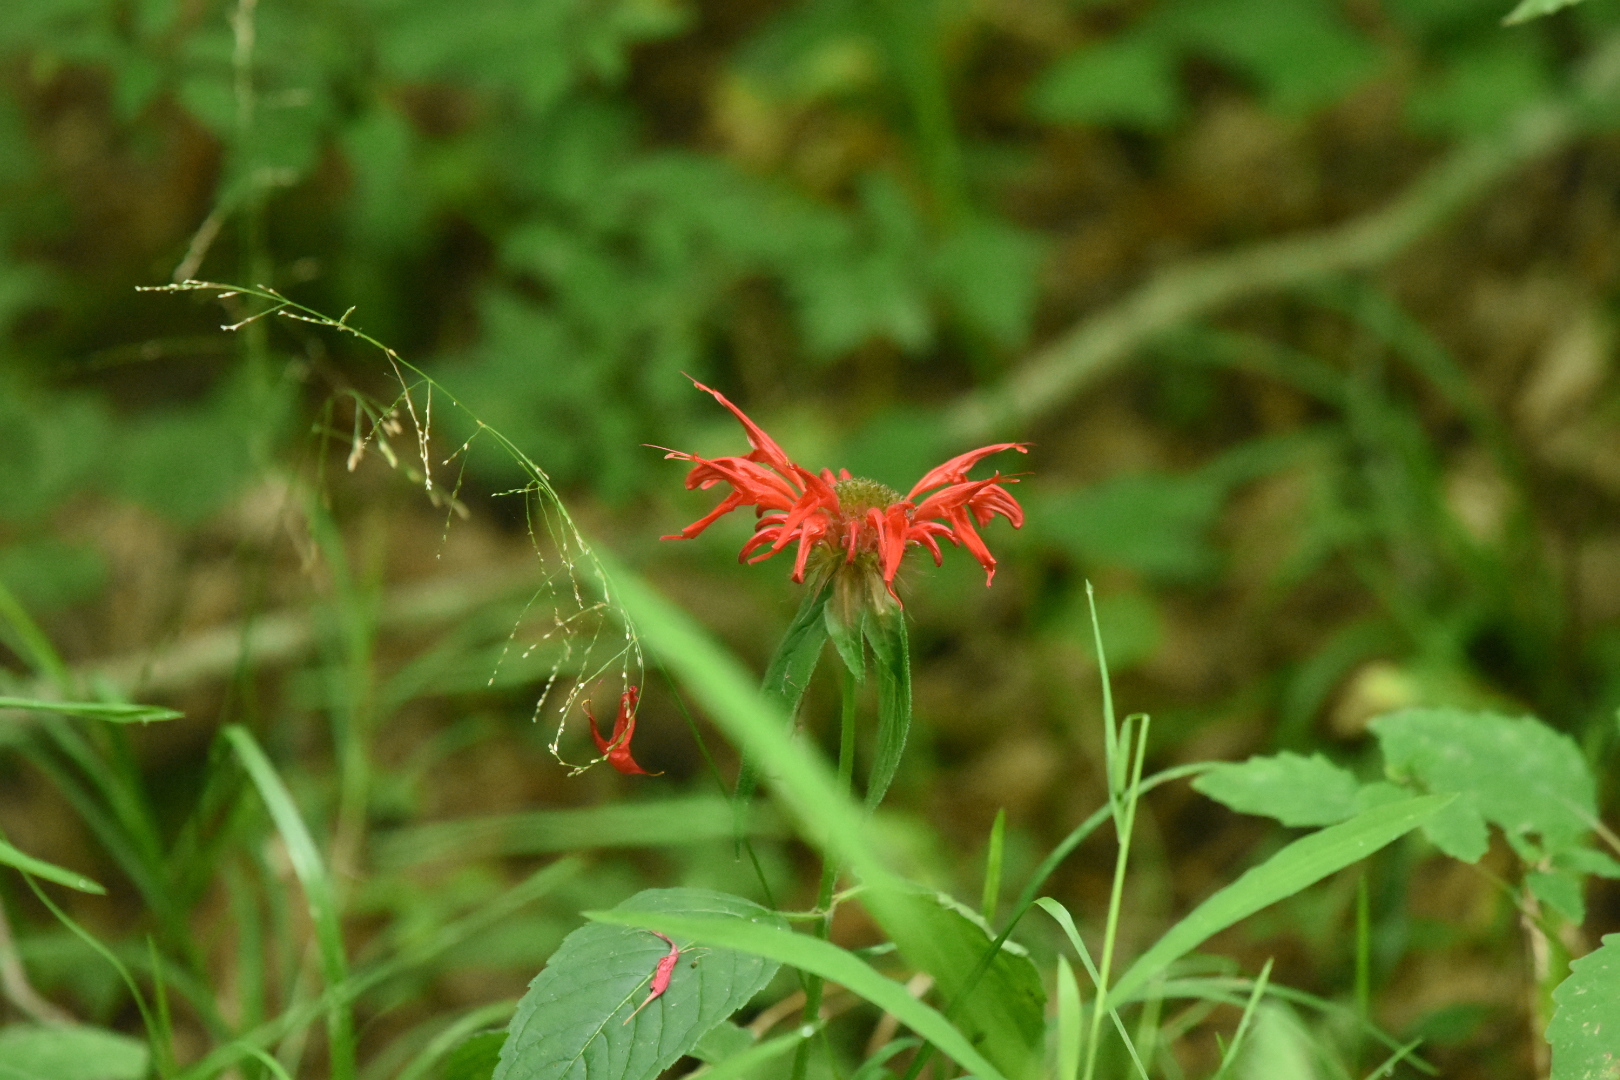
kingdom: Plantae
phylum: Tracheophyta
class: Magnoliopsida
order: Lamiales
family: Lamiaceae
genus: Monarda
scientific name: Monarda didyma
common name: Beebalm
